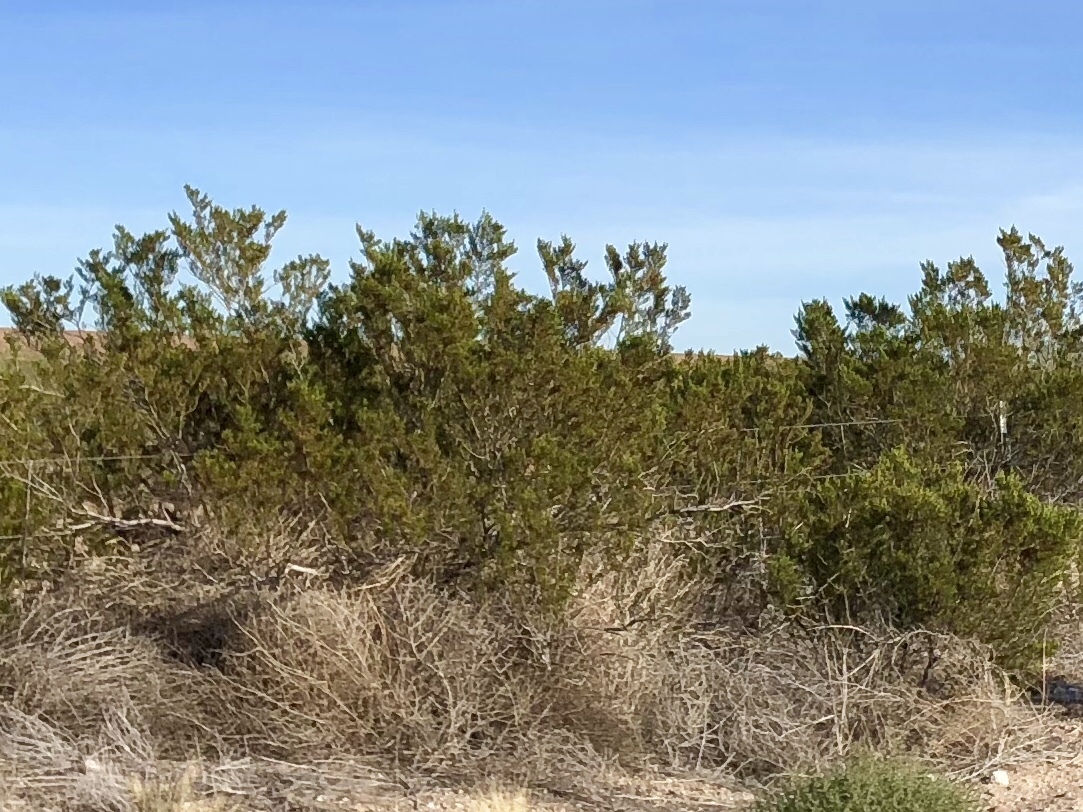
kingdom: Plantae
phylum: Tracheophyta
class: Magnoliopsida
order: Zygophyllales
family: Zygophyllaceae
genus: Larrea
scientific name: Larrea tridentata
